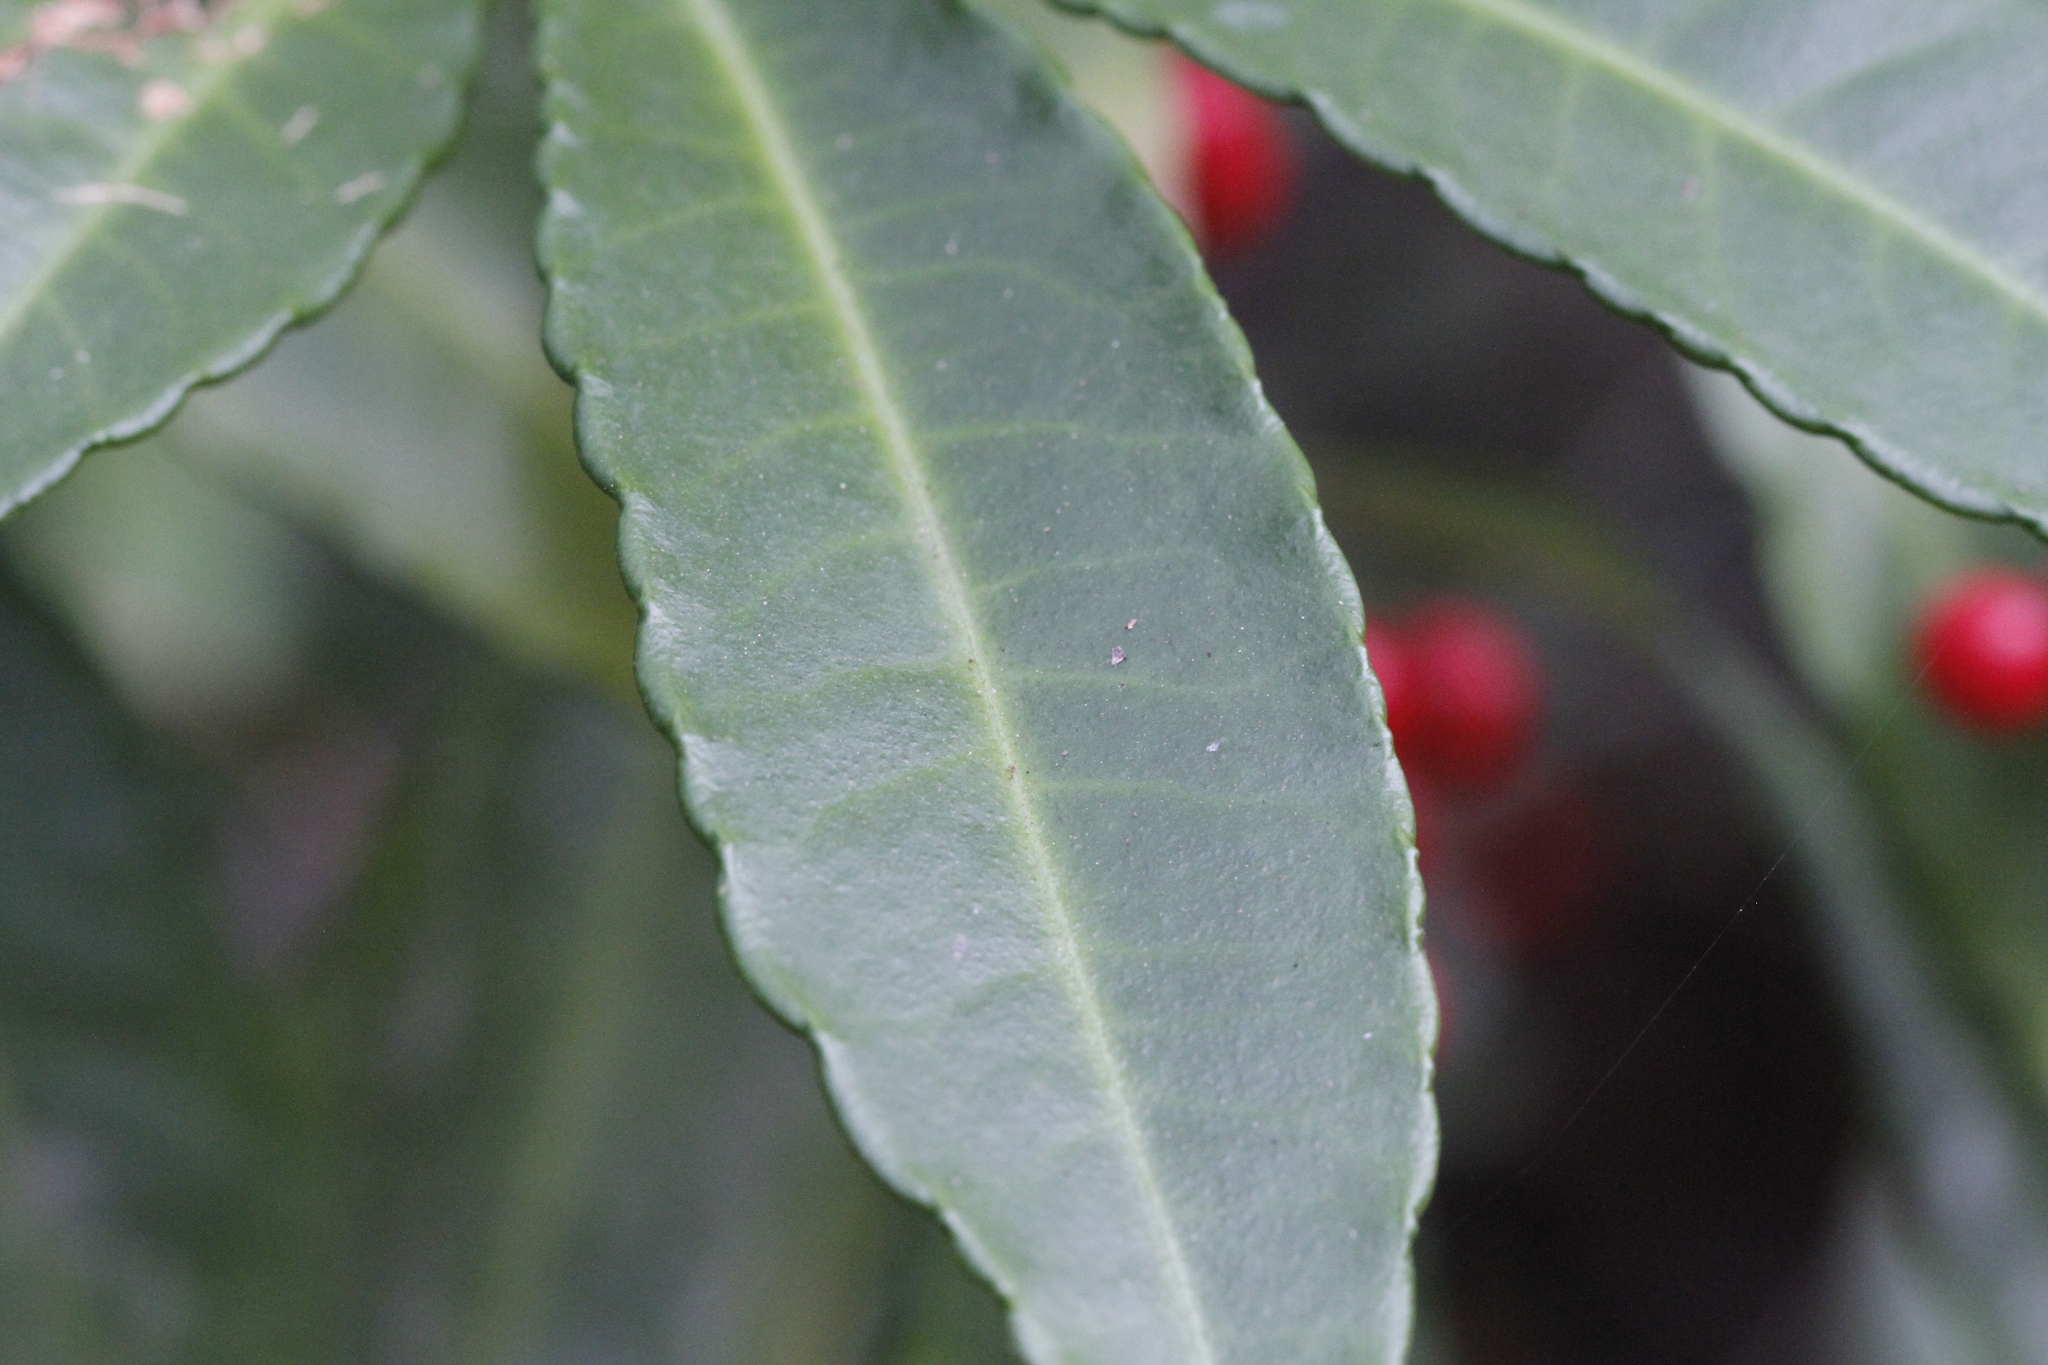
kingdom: Plantae
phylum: Tracheophyta
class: Magnoliopsida
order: Ericales
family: Primulaceae
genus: Ardisia
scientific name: Ardisia crenata
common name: Hen's eyes
